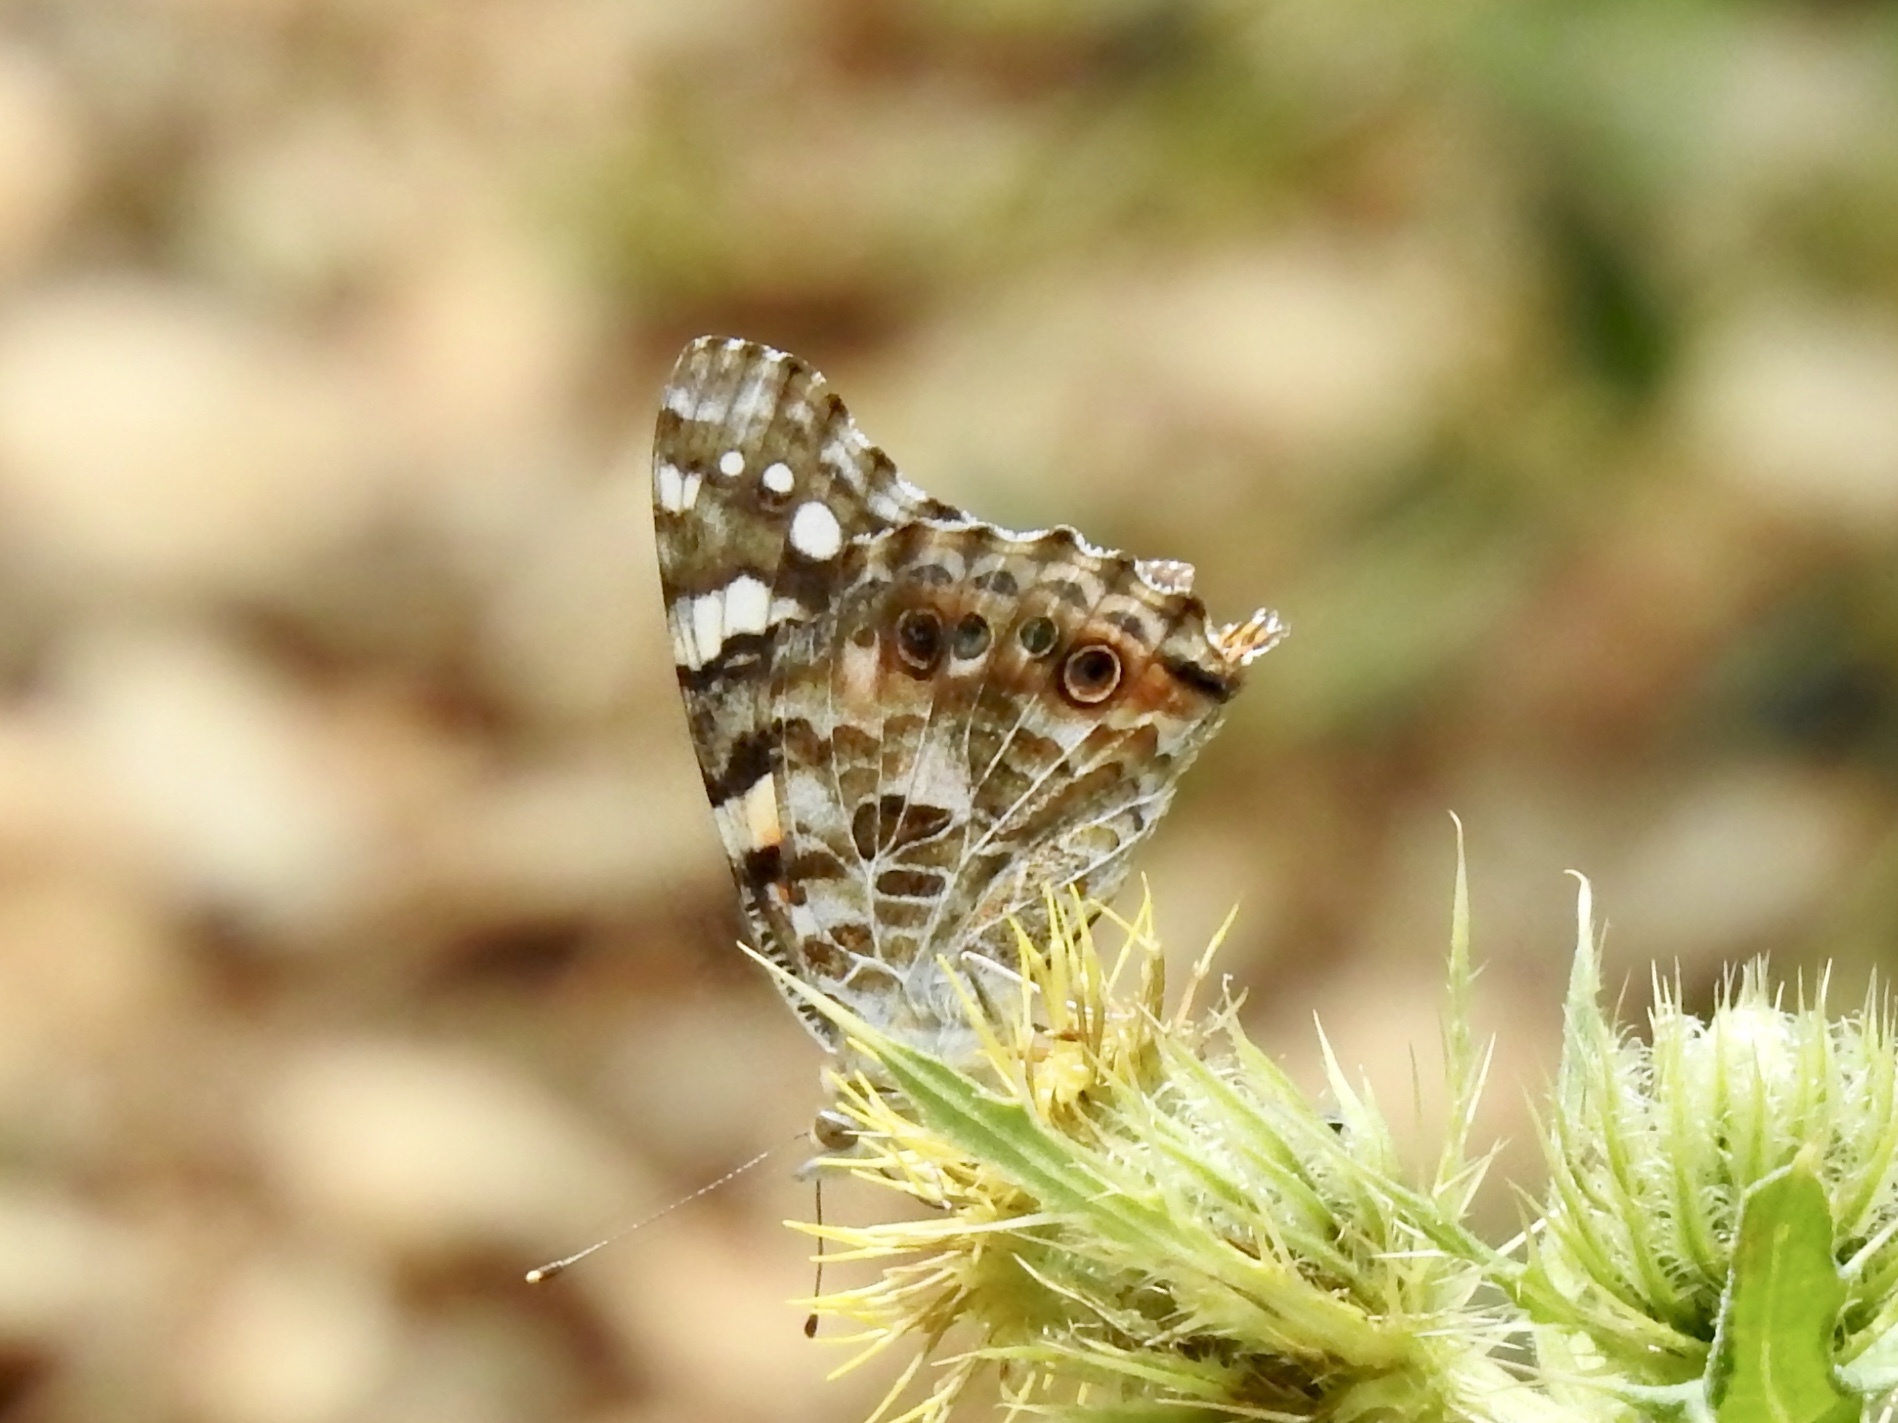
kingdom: Animalia
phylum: Arthropoda
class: Insecta
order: Lepidoptera
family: Nymphalidae
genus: Vanessa
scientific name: Vanessa cardui
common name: Painted lady
